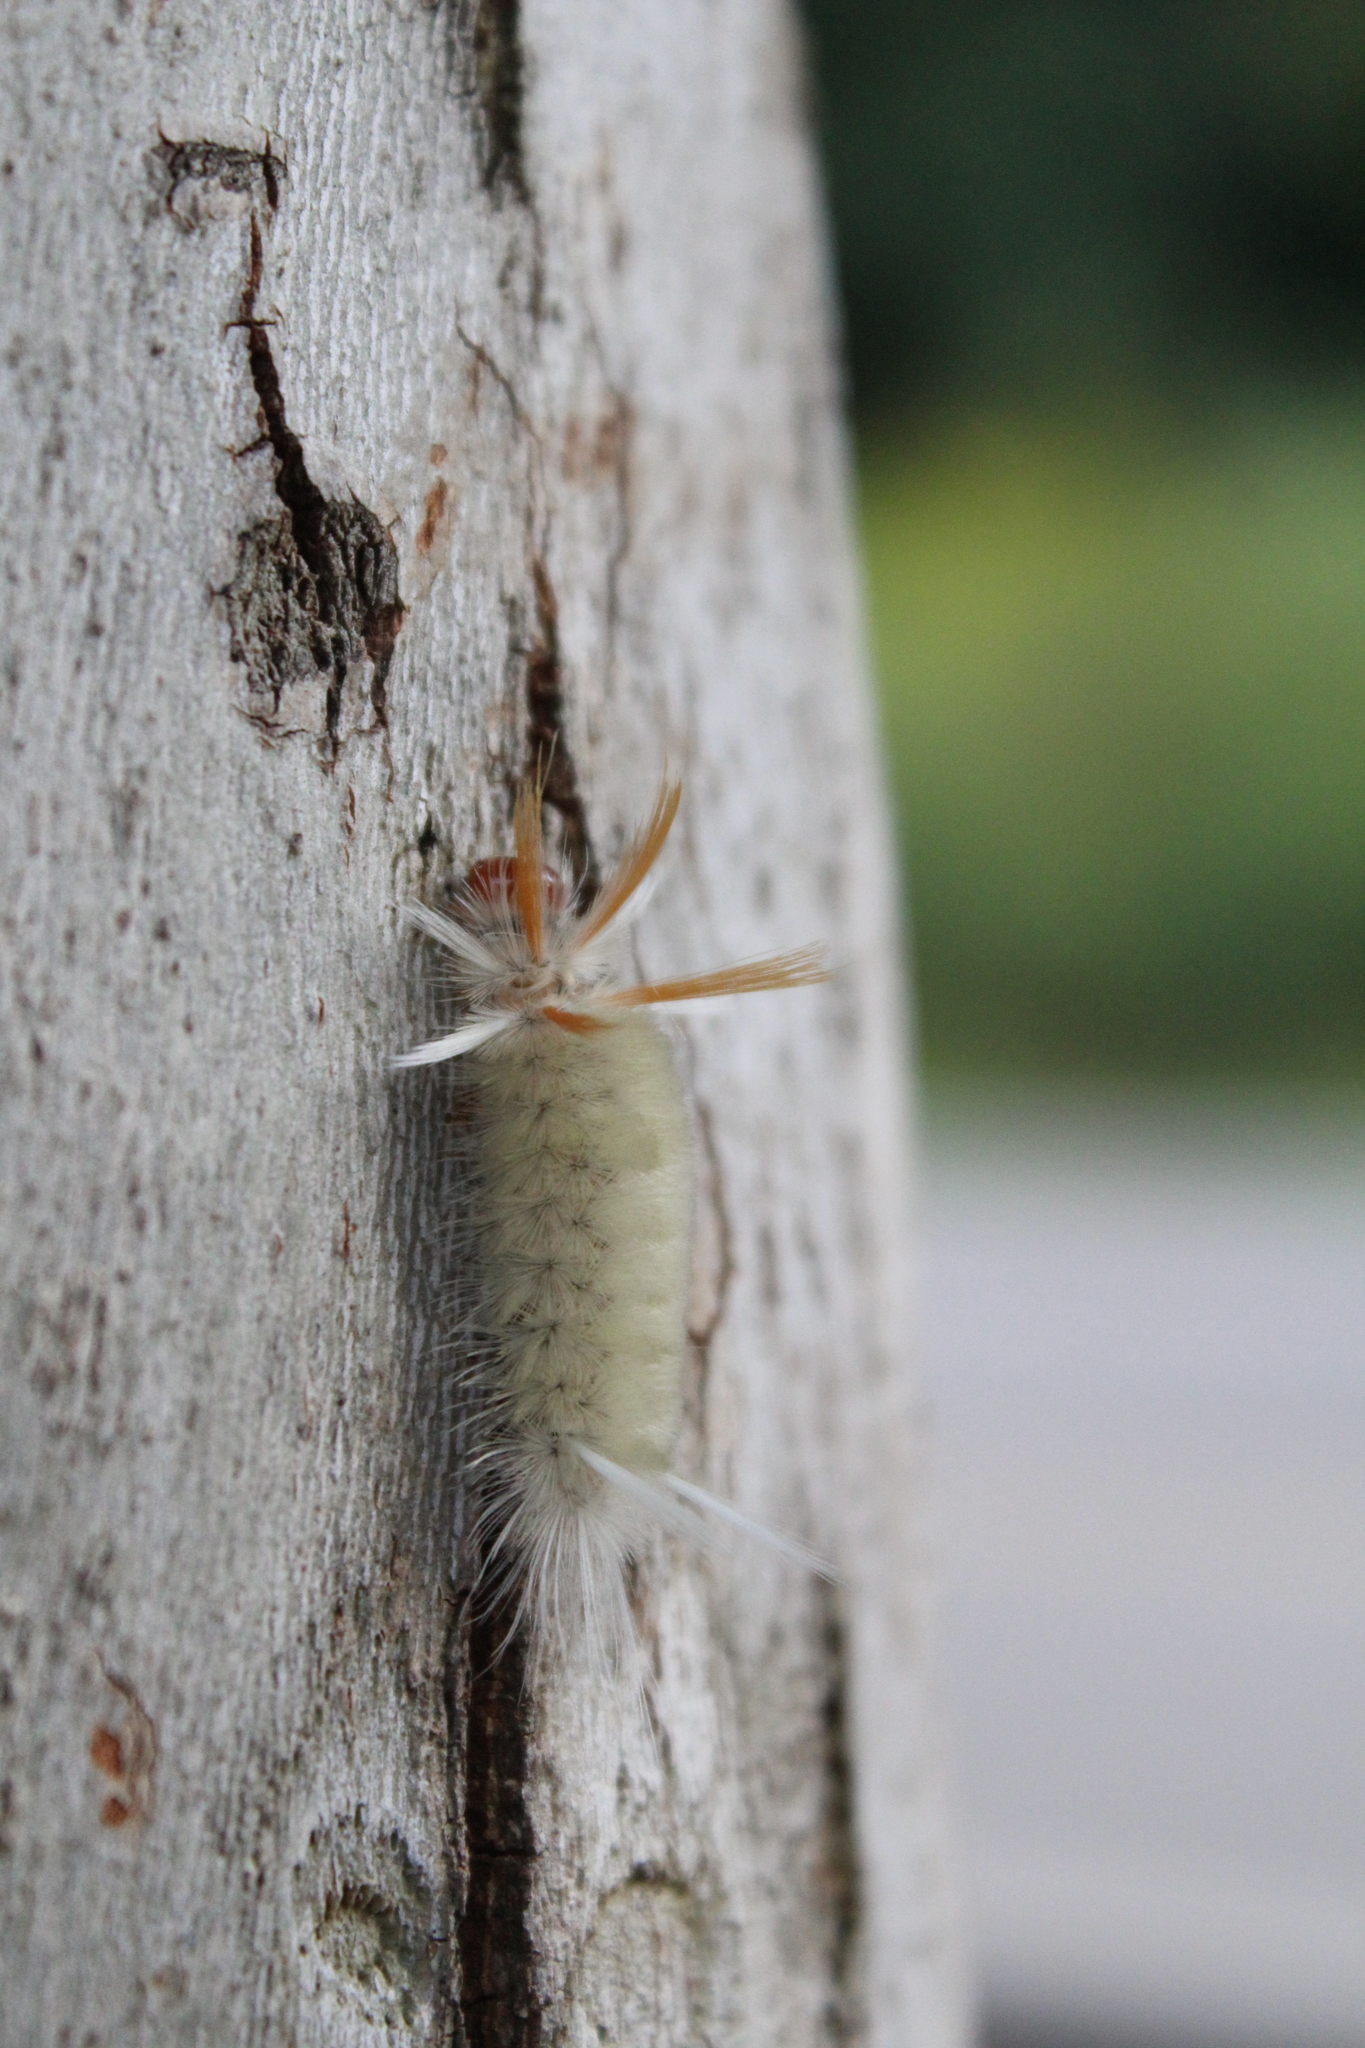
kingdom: Animalia
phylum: Arthropoda
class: Insecta
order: Lepidoptera
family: Erebidae
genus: Halysidota
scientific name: Halysidota harrisii
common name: Sycamore tussock moth
